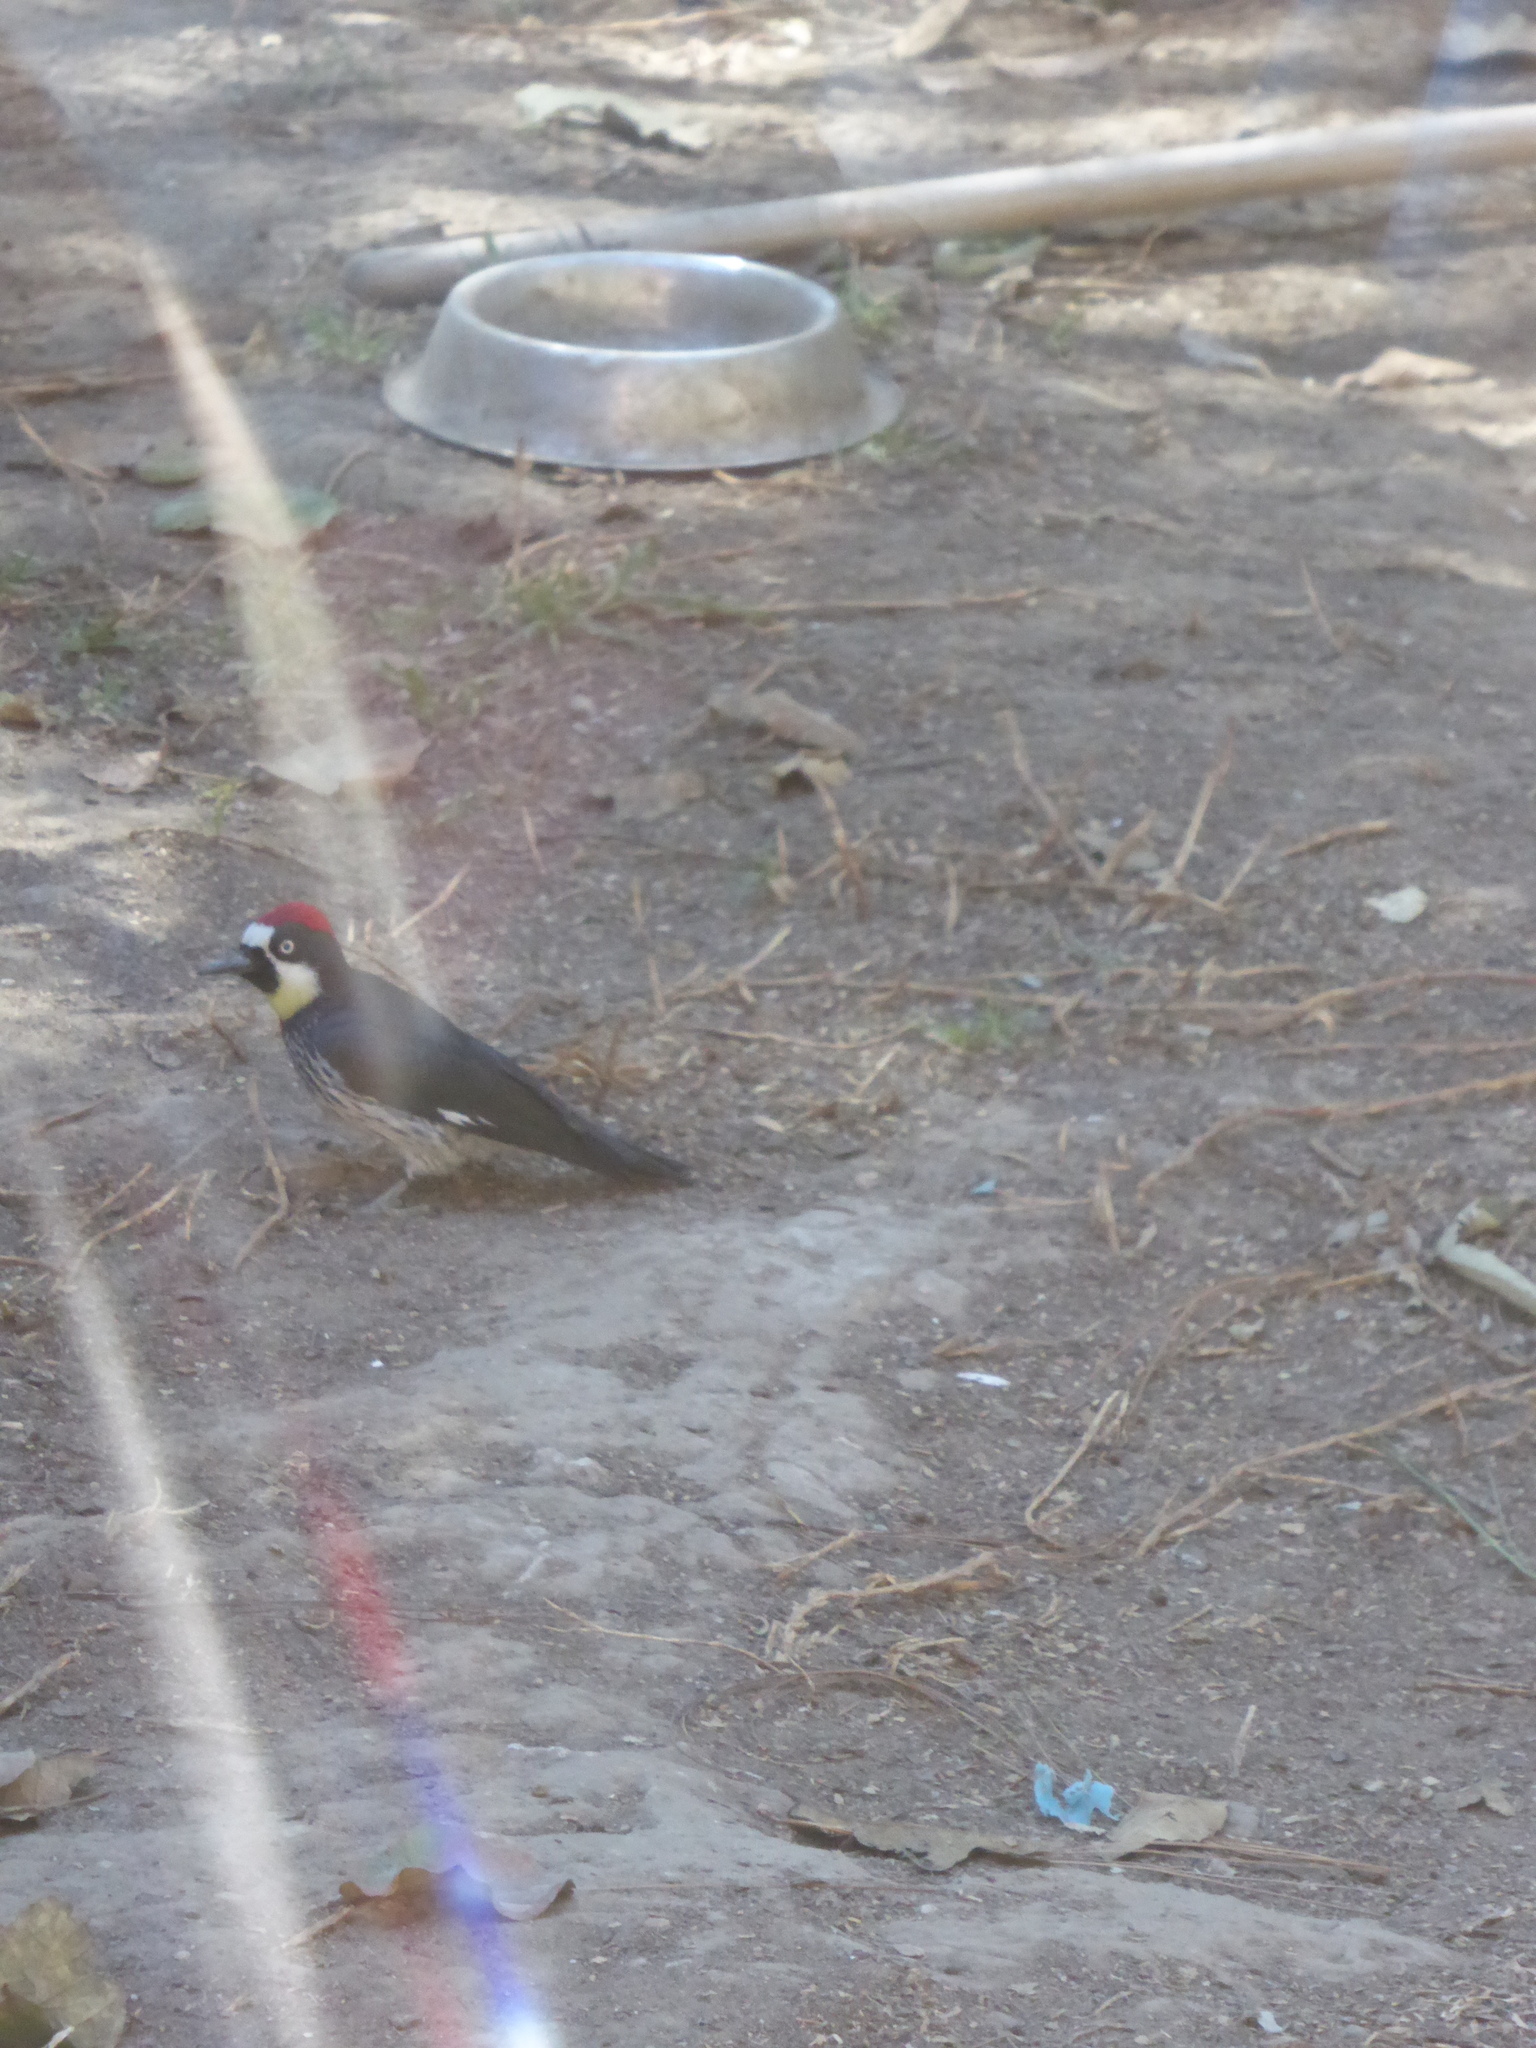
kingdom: Animalia
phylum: Chordata
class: Aves
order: Piciformes
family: Picidae
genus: Melanerpes
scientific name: Melanerpes formicivorus
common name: Acorn woodpecker
